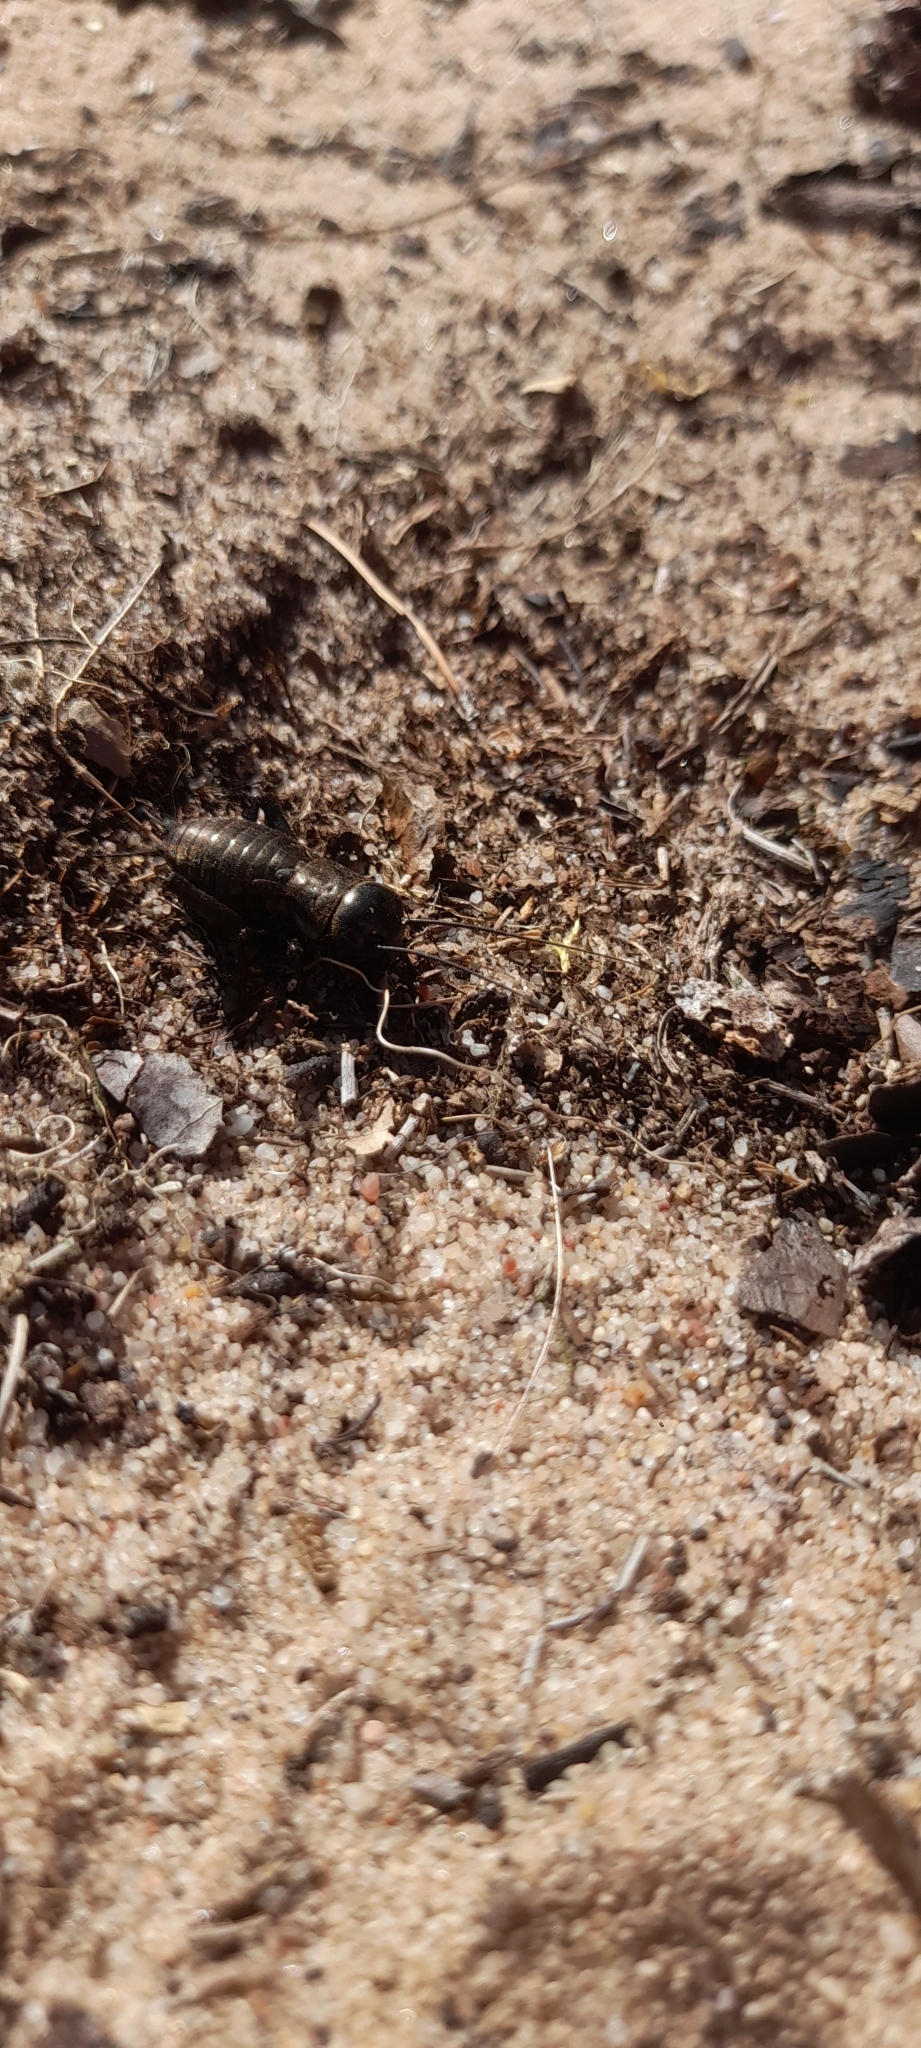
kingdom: Animalia
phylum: Arthropoda
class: Insecta
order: Orthoptera
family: Gryllidae
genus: Gryllus
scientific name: Gryllus campestris
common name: Field cricket
